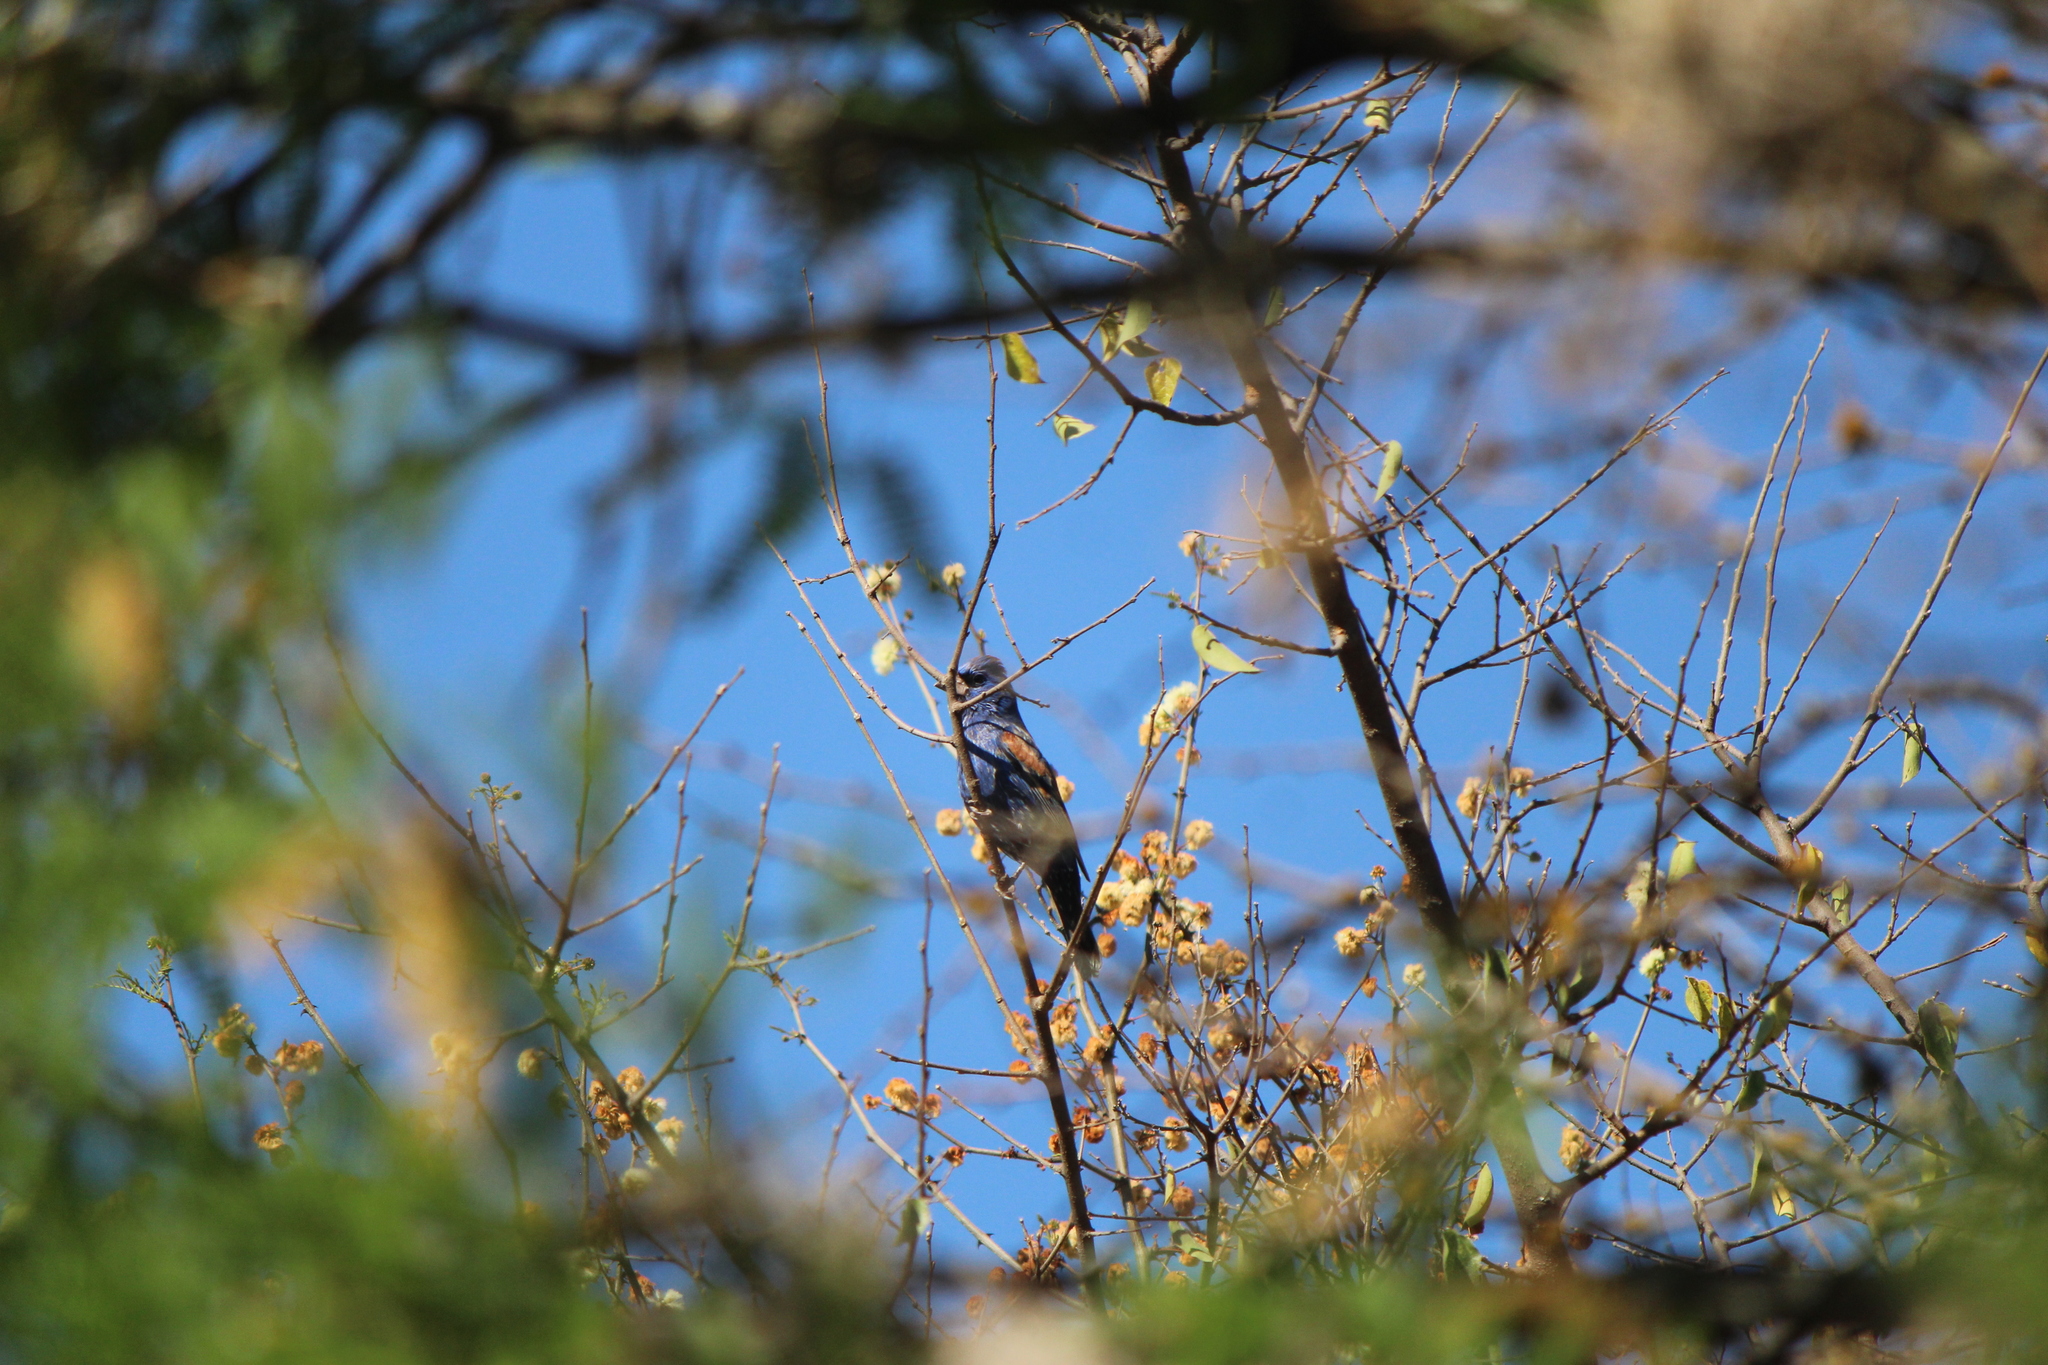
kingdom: Animalia
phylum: Chordata
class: Aves
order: Passeriformes
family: Cardinalidae
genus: Passerina
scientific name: Passerina caerulea
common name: Blue grosbeak
